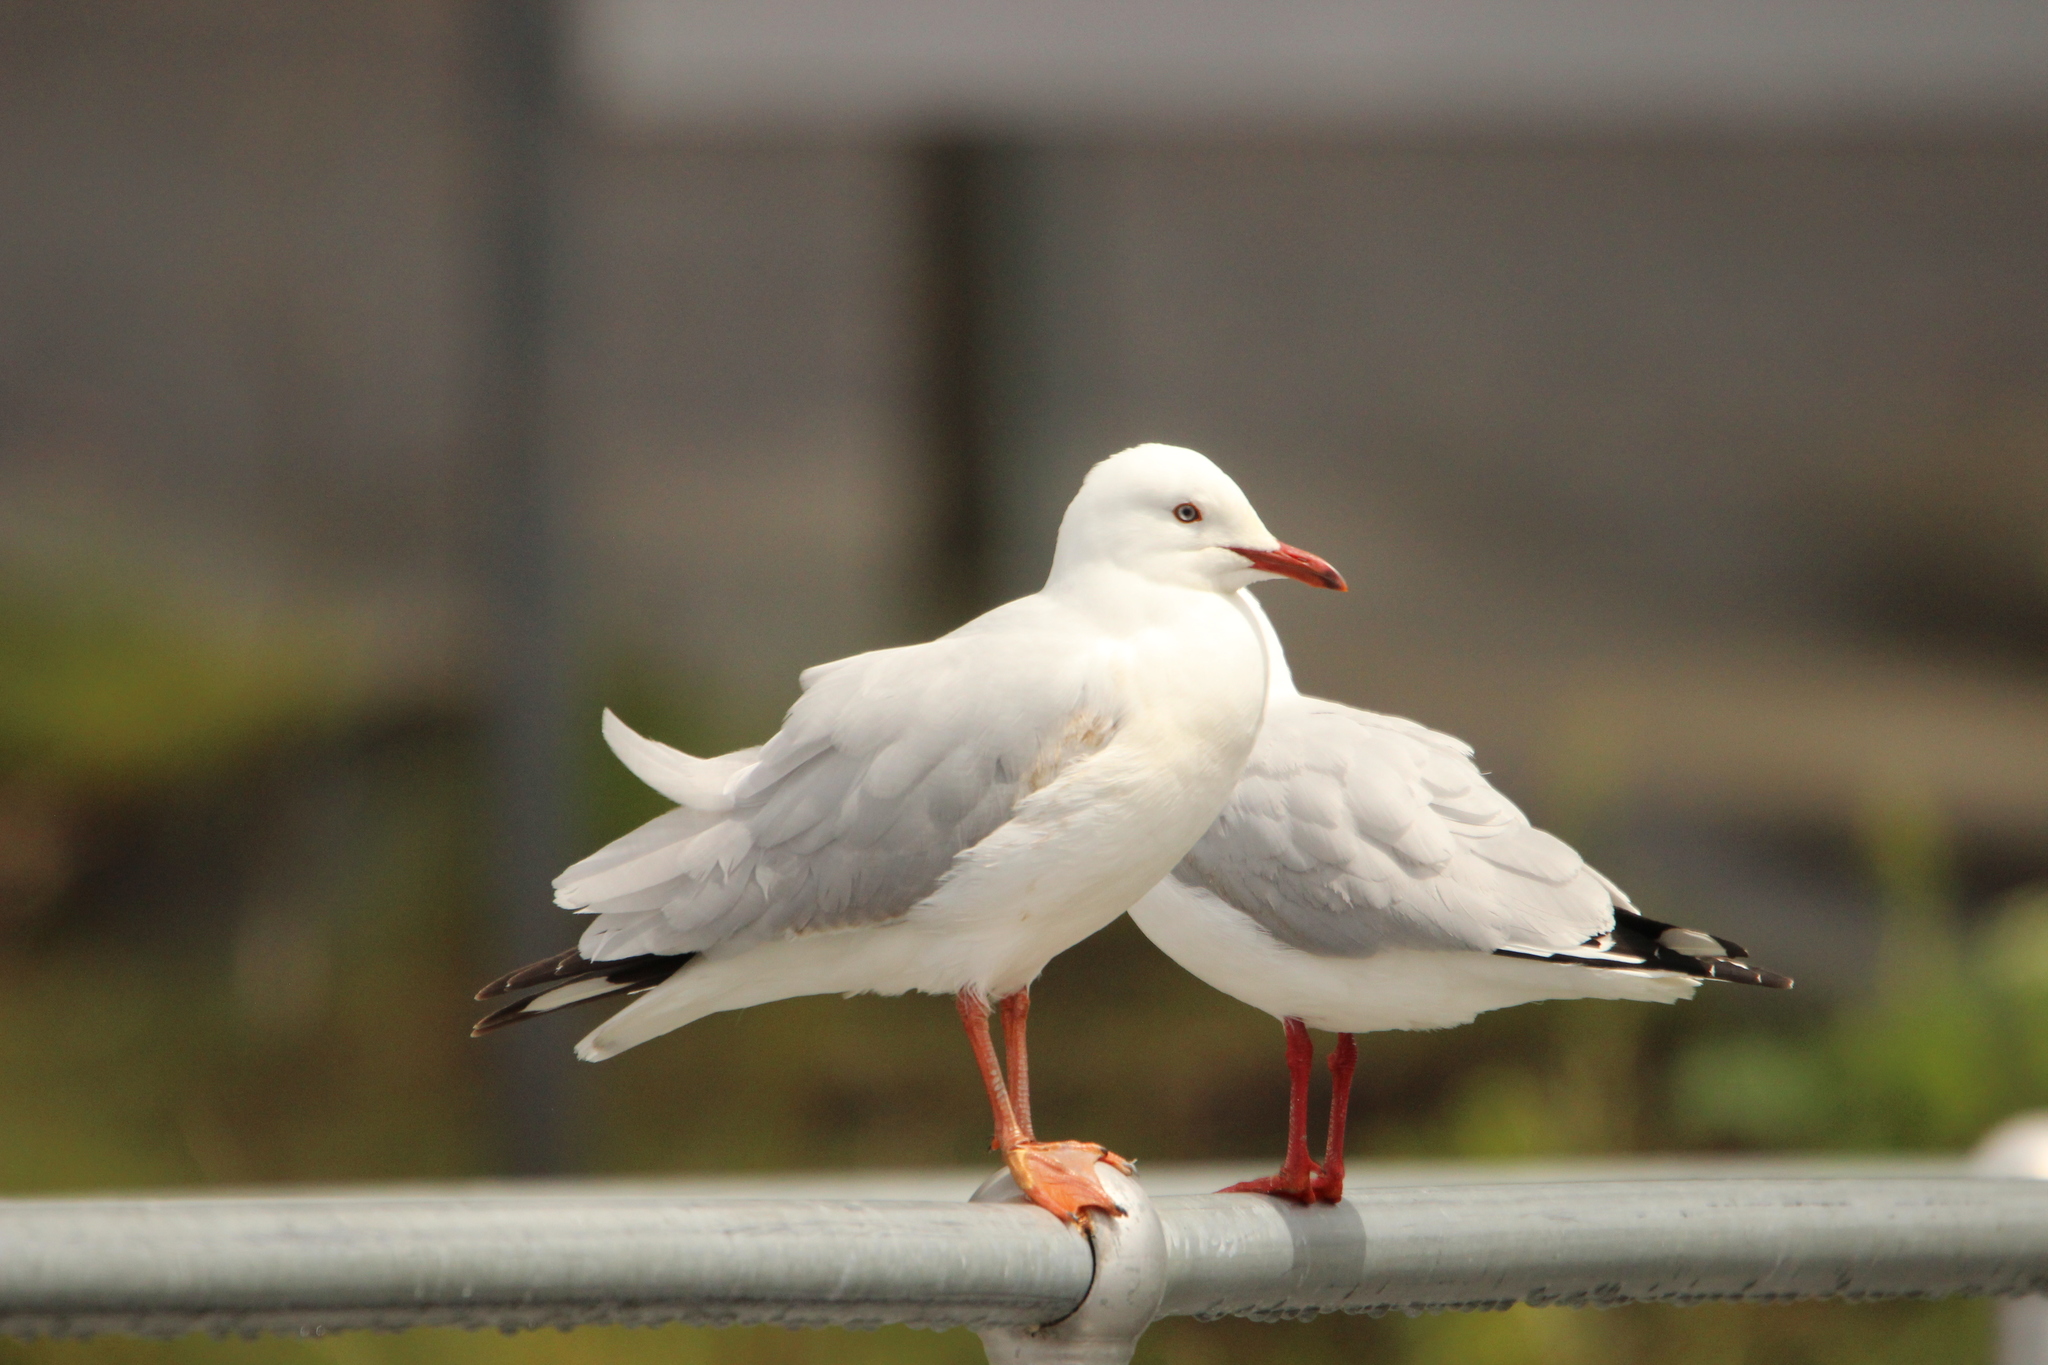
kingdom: Animalia
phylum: Chordata
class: Aves
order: Charadriiformes
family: Laridae
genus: Chroicocephalus
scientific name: Chroicocephalus novaehollandiae
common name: Silver gull
